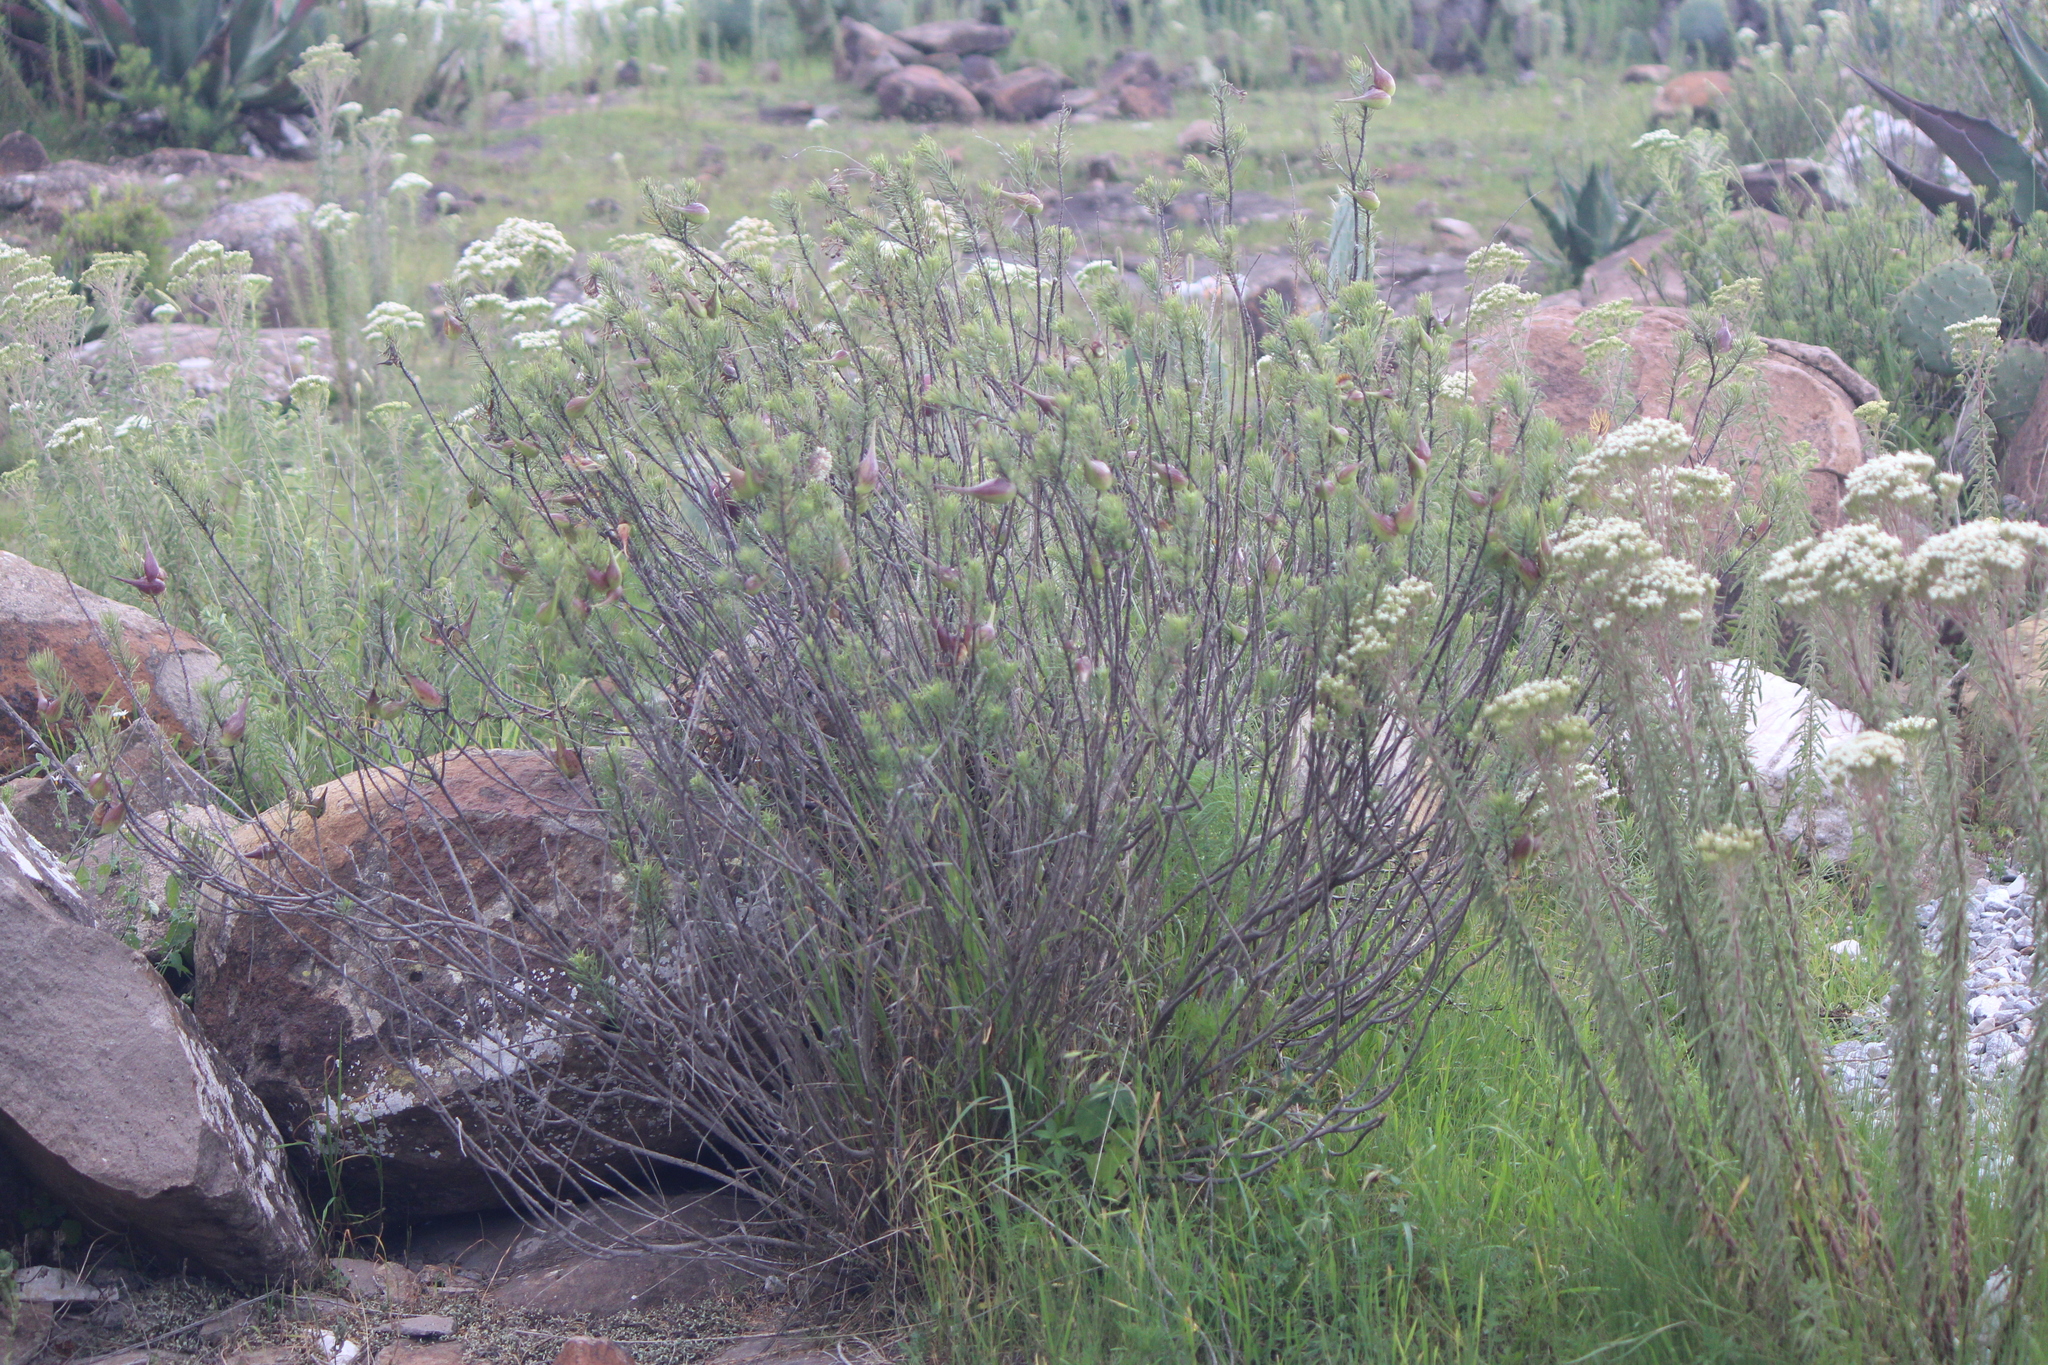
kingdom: Plantae
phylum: Tracheophyta
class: Magnoliopsida
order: Gentianales
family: Apocynaceae
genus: Asclepias
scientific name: Asclepias linaria
